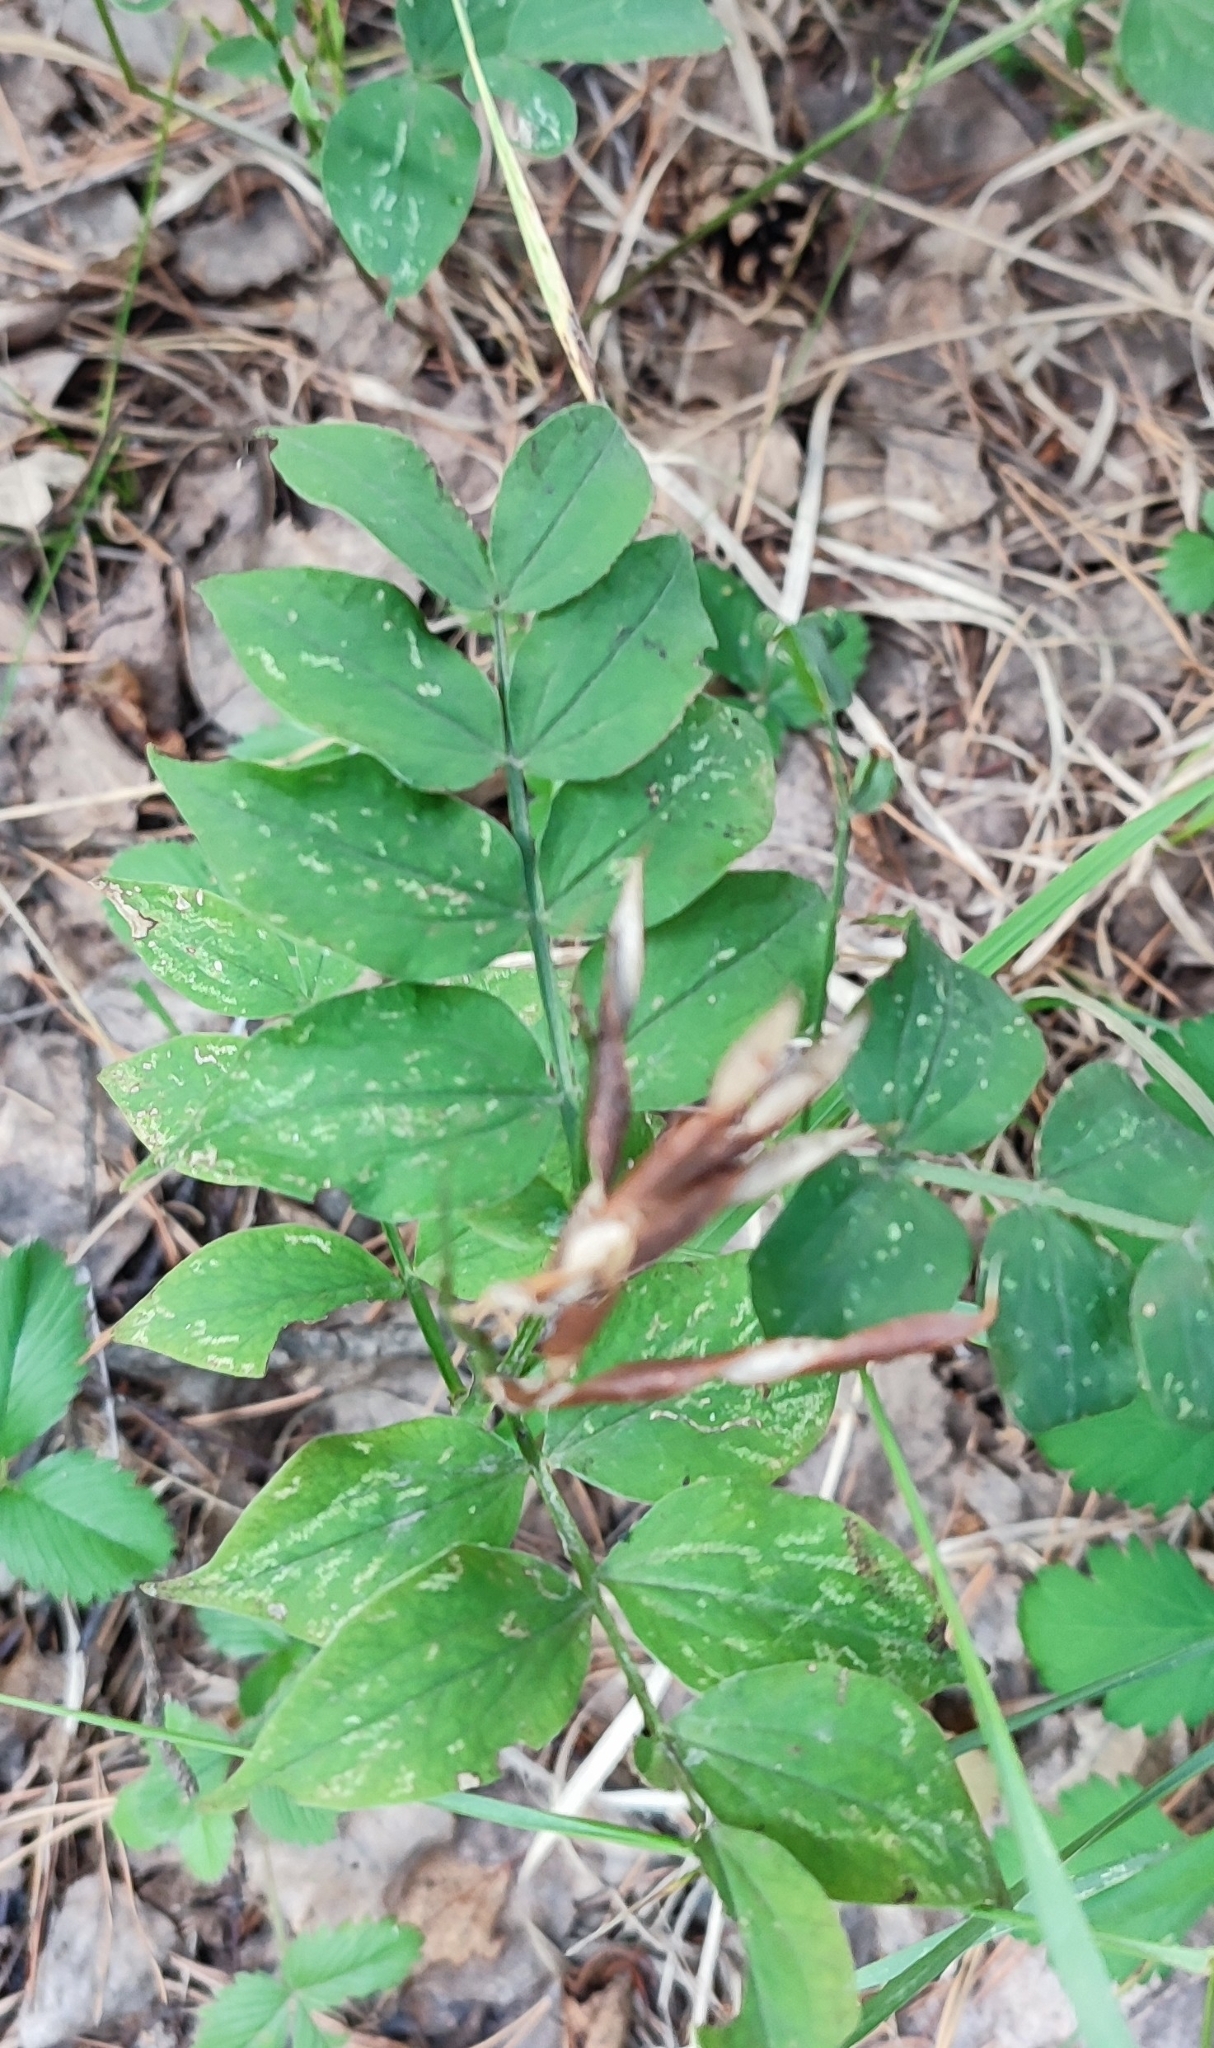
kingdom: Plantae
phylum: Tracheophyta
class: Magnoliopsida
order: Fabales
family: Fabaceae
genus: Lathyrus
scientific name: Lathyrus vernus
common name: Spring pea
